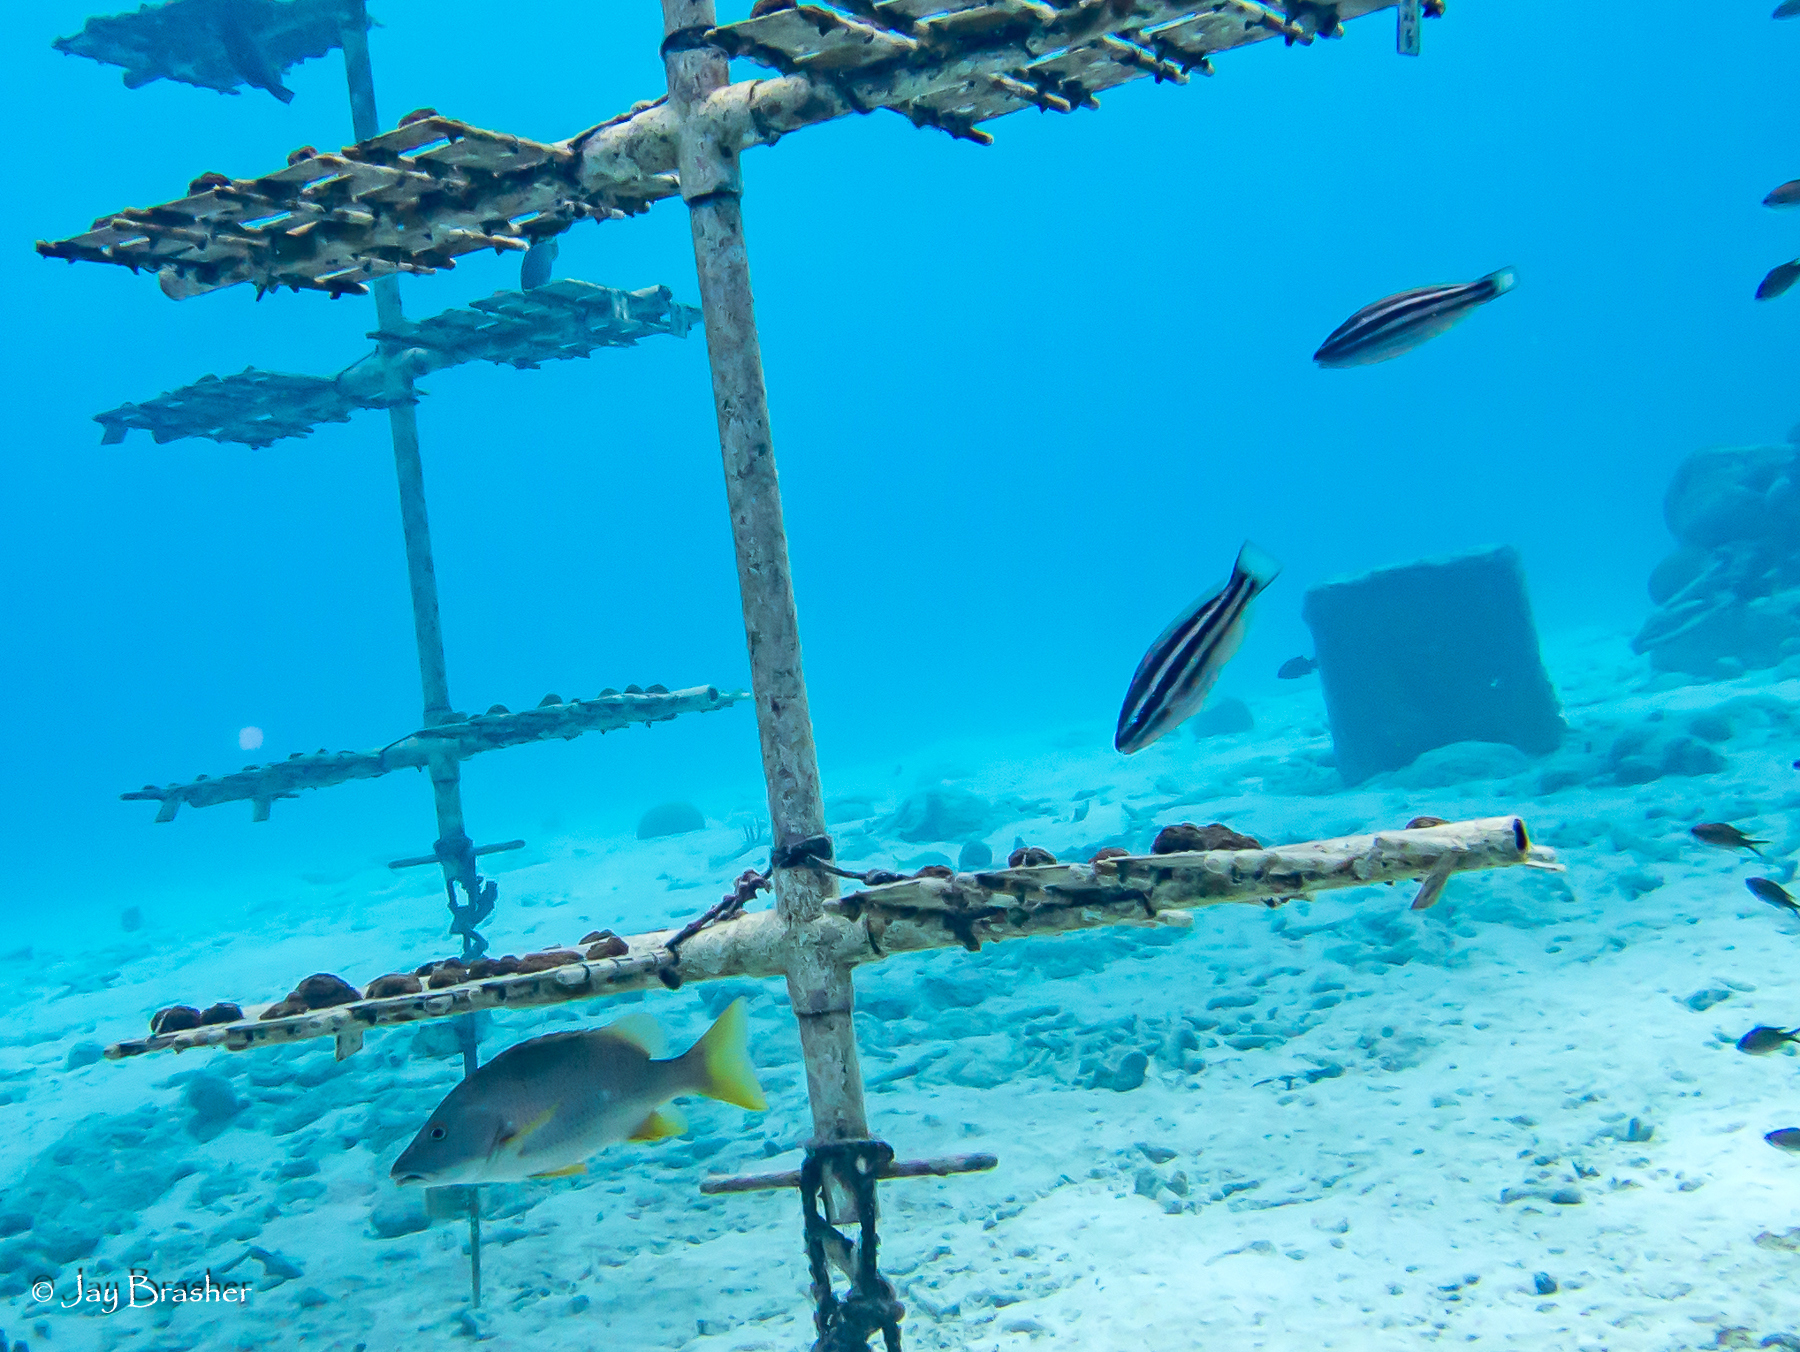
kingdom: Animalia
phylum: Chordata
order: Perciformes
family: Lutjanidae
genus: Lutjanus
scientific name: Lutjanus apodus
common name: Schoolmaster
